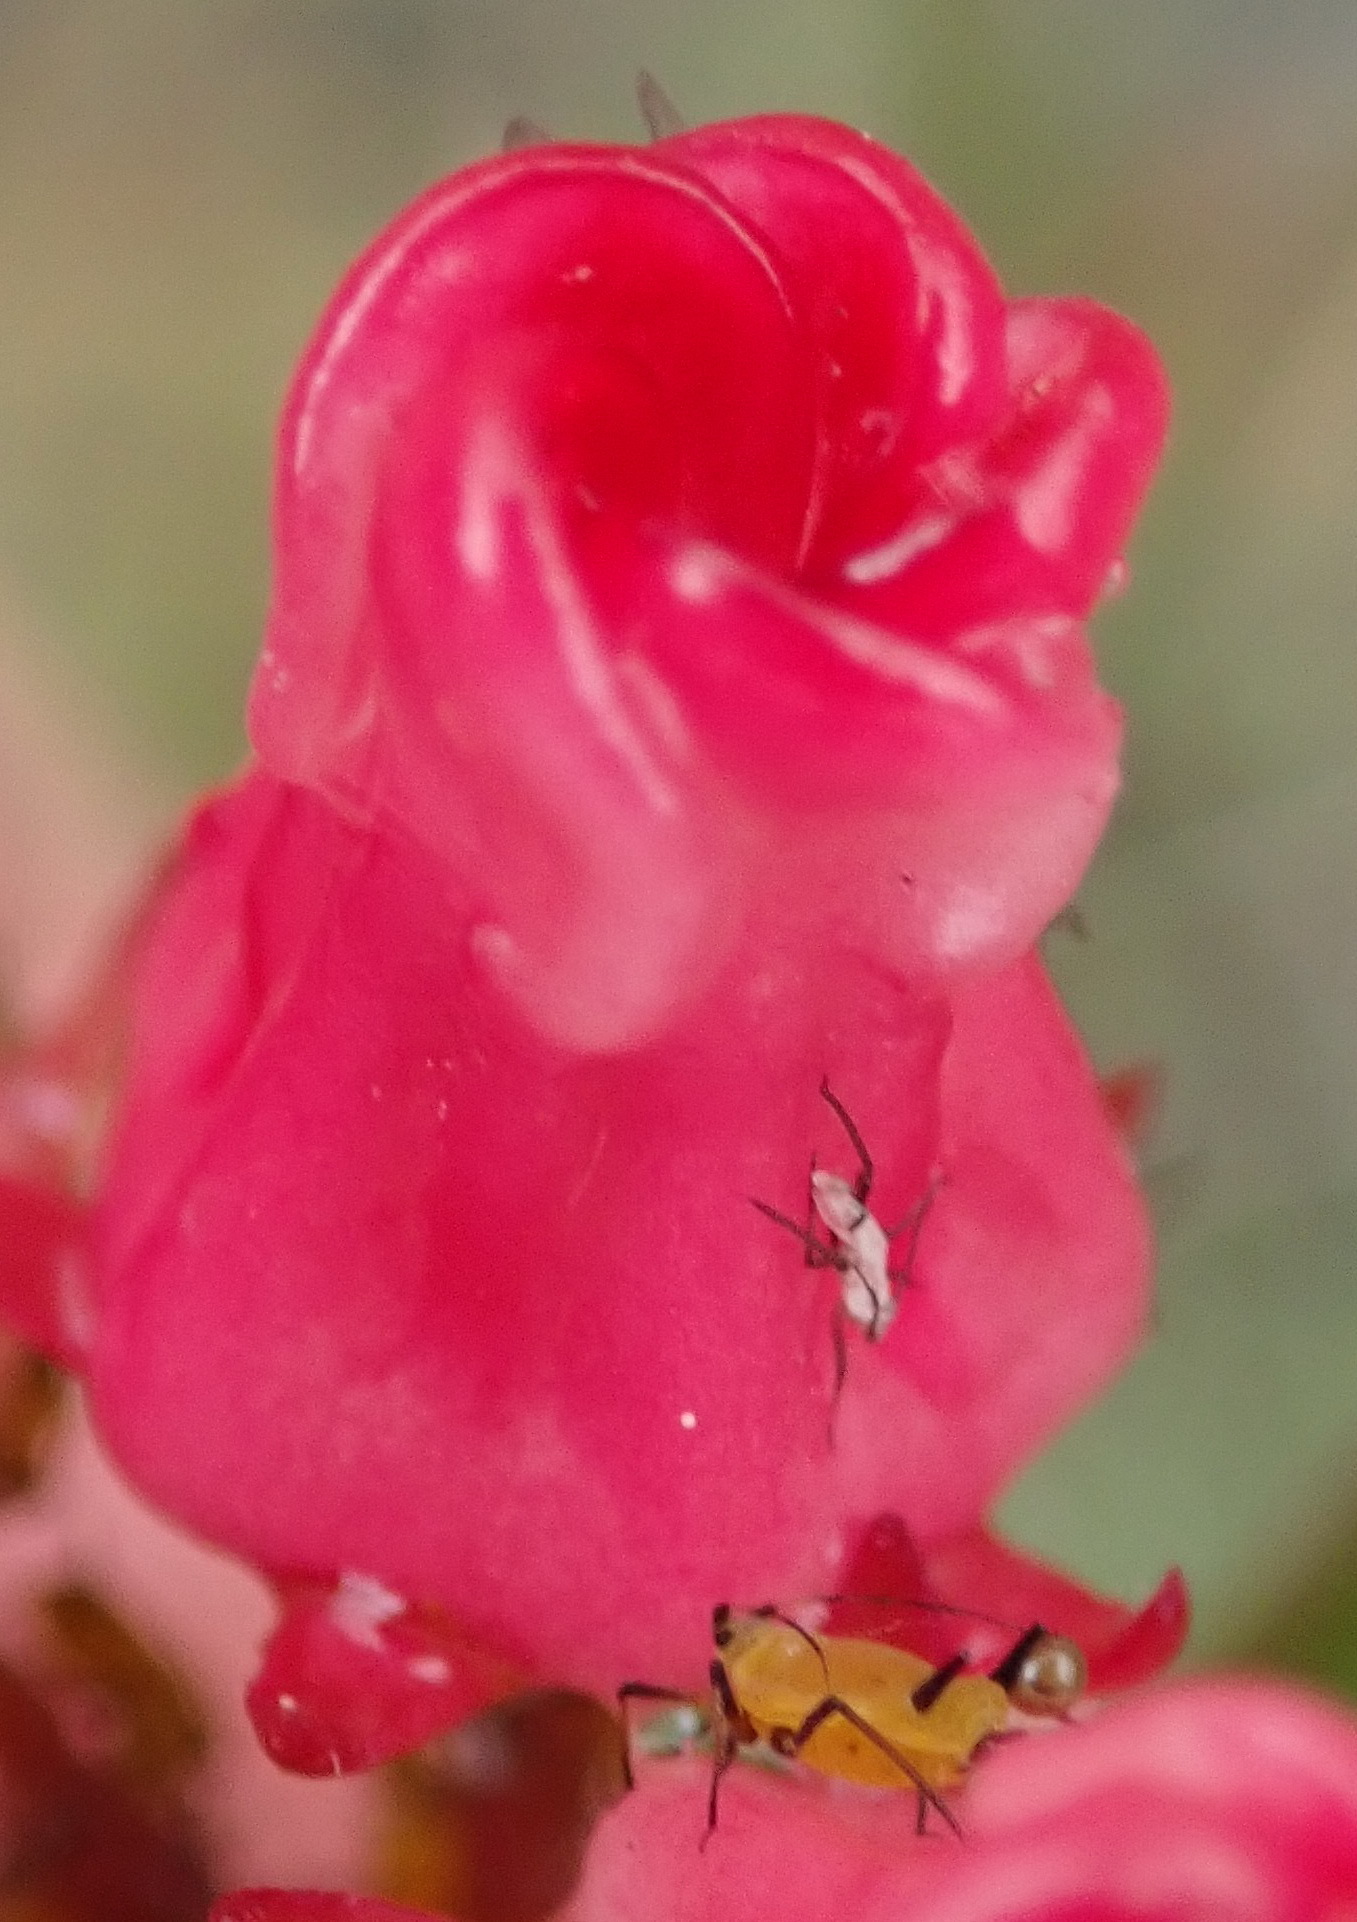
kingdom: Plantae
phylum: Tracheophyta
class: Magnoliopsida
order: Gentianales
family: Apocynaceae
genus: Microloma
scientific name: Microloma tenuifolium
